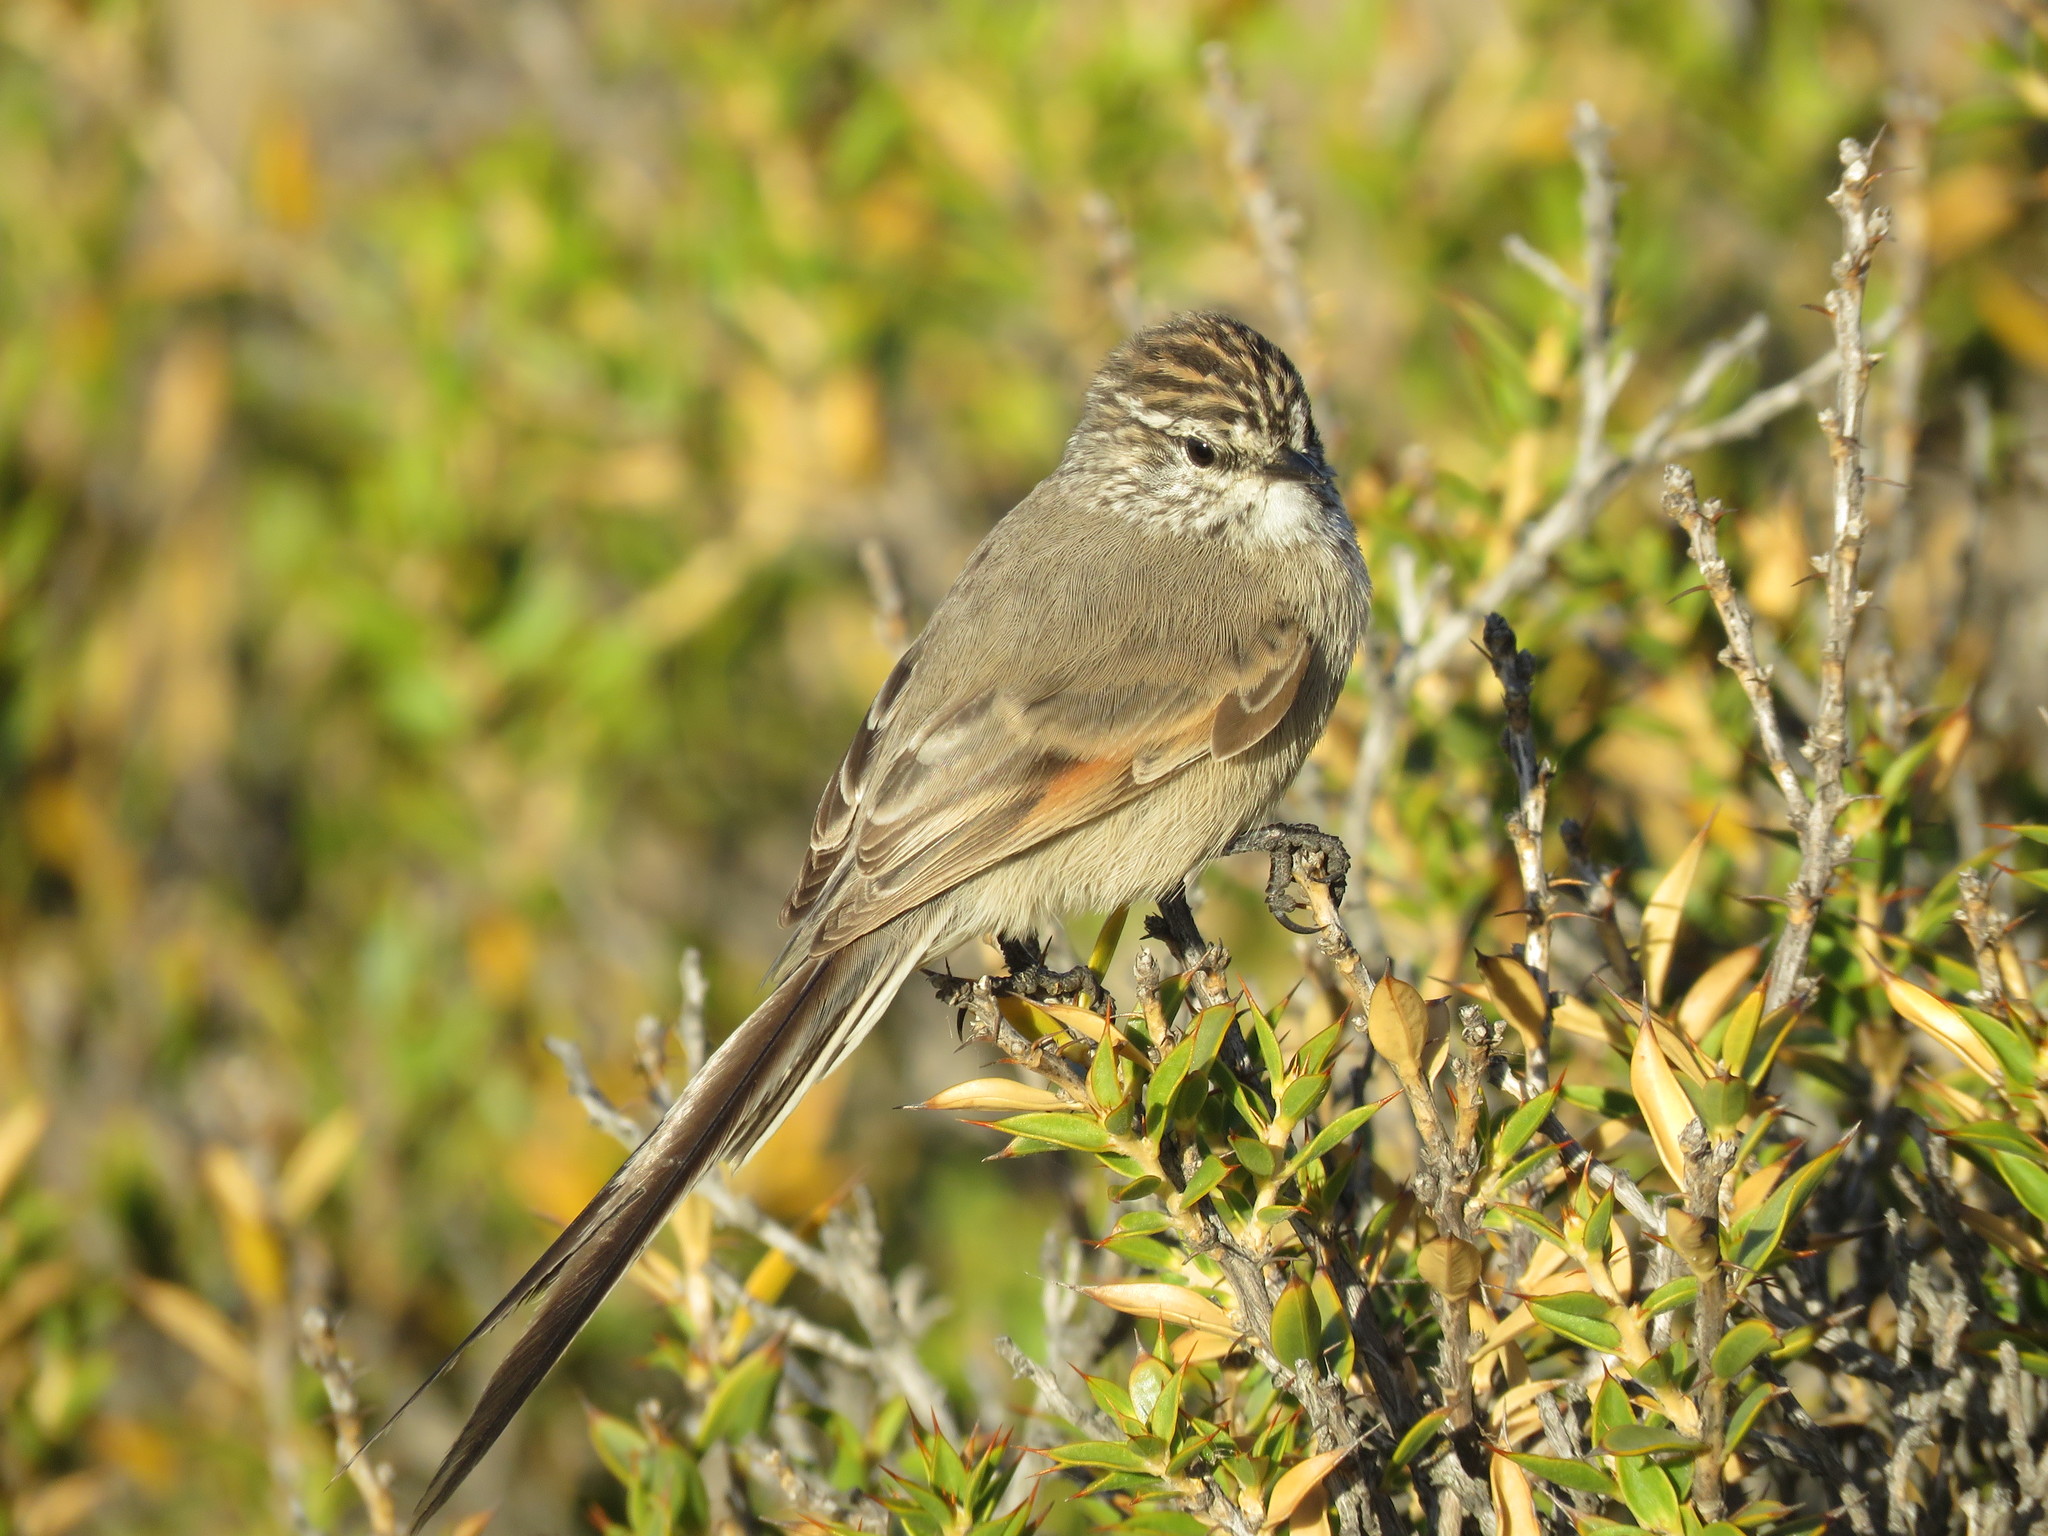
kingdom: Animalia
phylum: Chordata
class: Aves
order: Passeriformes
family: Furnariidae
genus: Leptasthenura
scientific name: Leptasthenura aegithaloides
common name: Plain-mantled tit-spinetail
